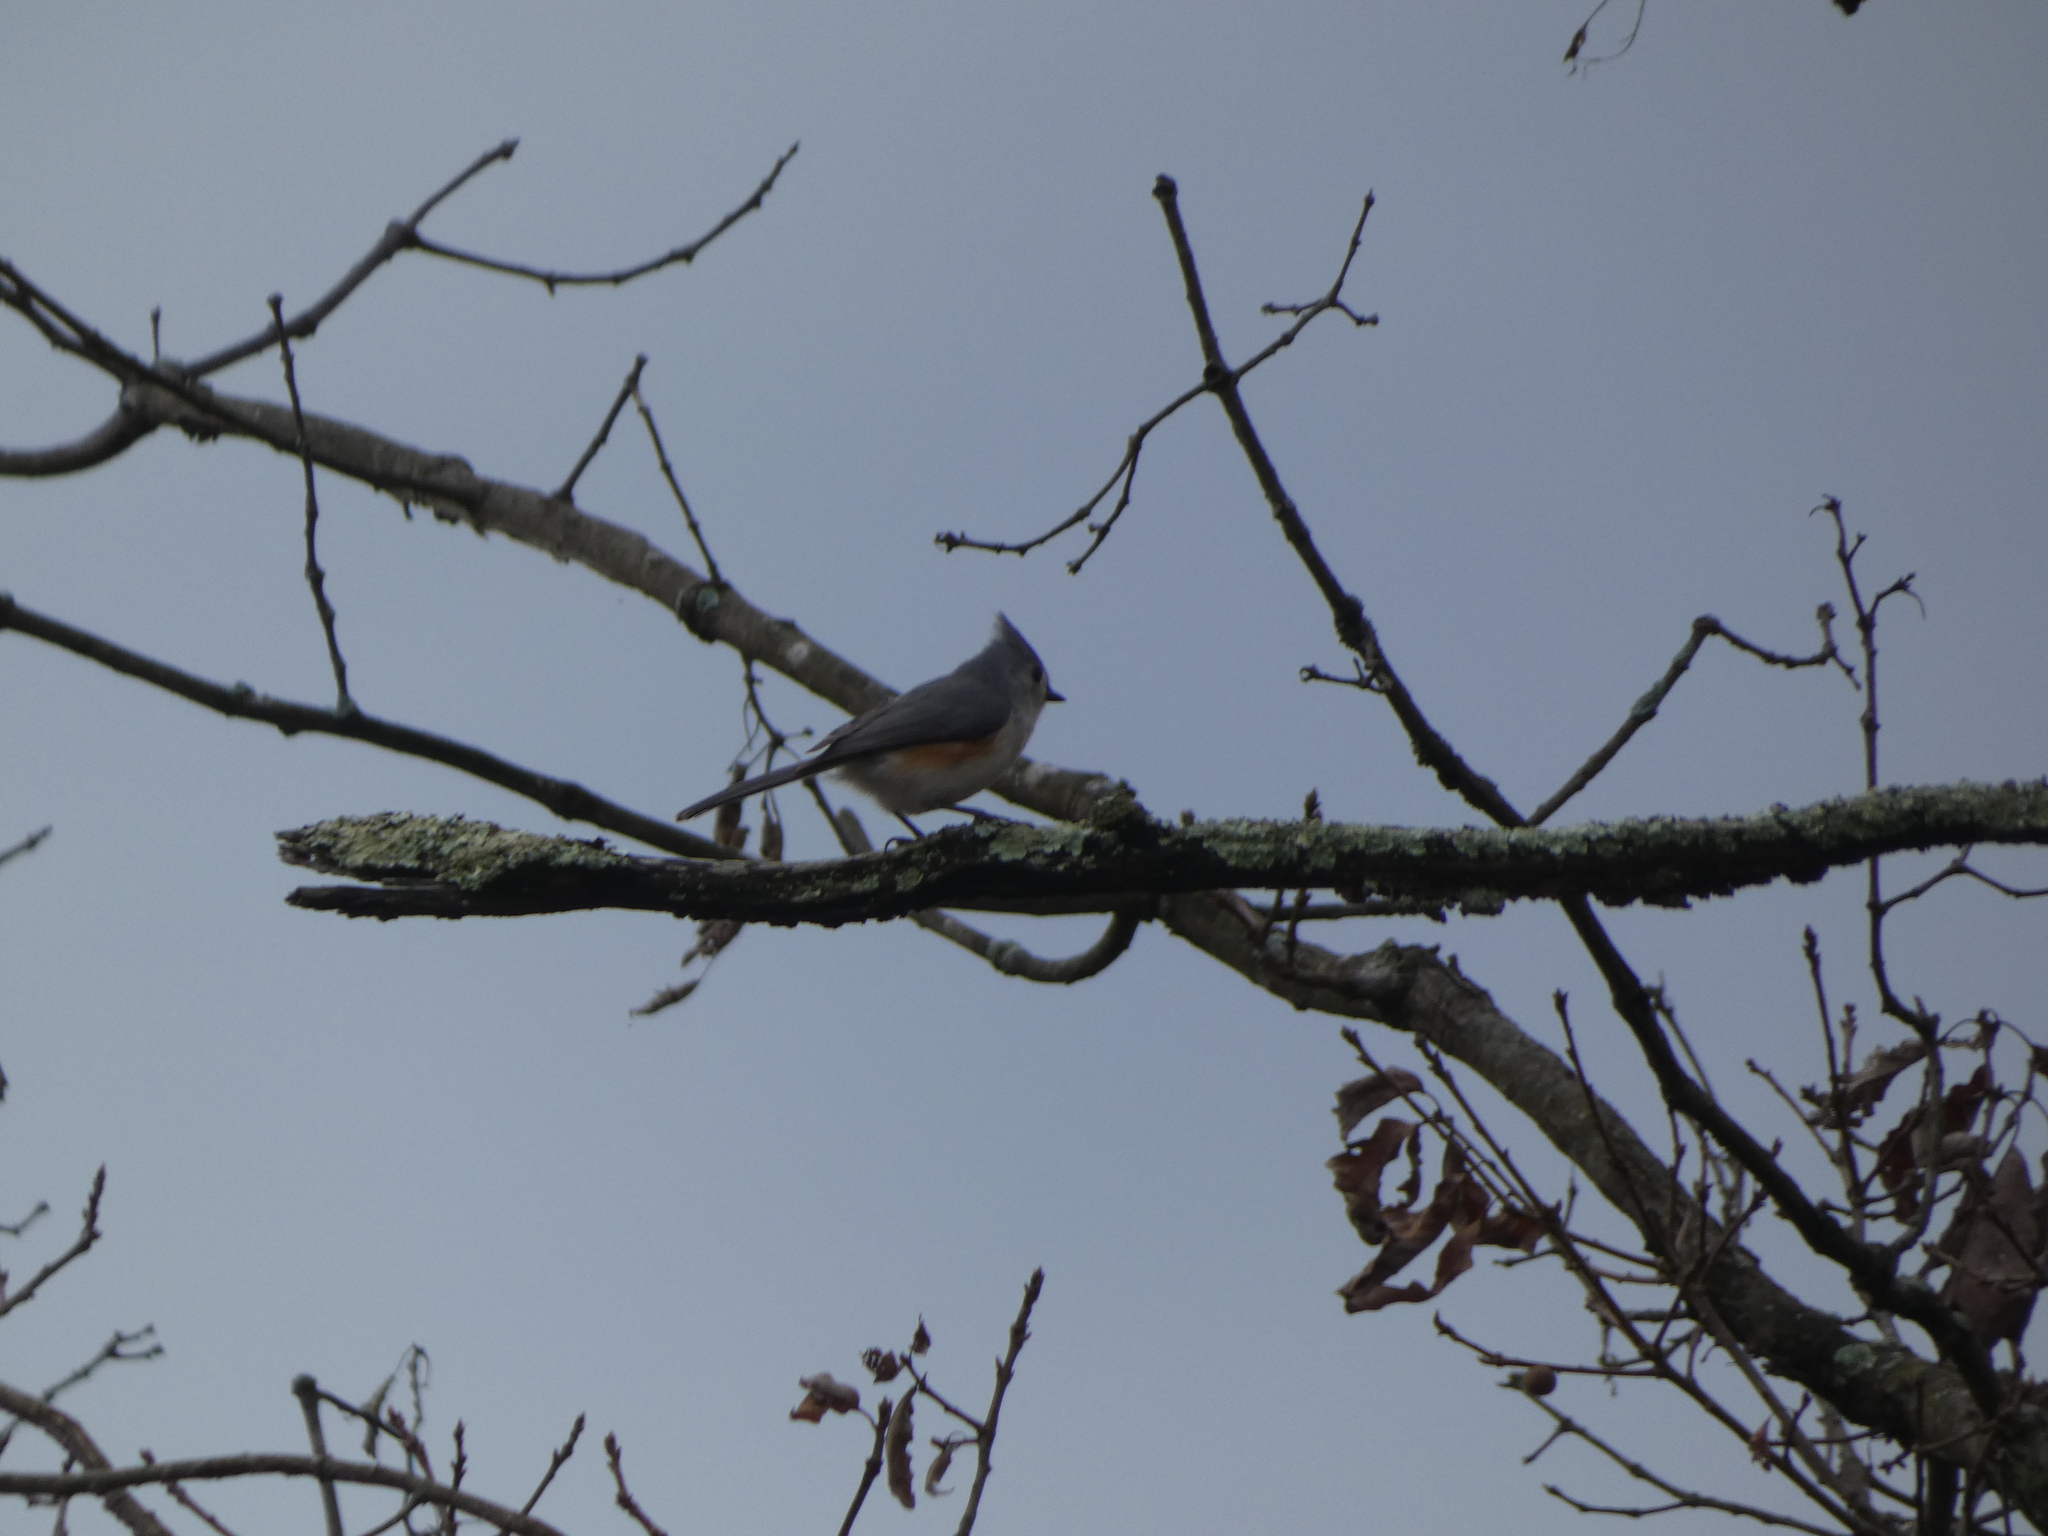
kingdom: Animalia
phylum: Chordata
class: Aves
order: Passeriformes
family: Paridae
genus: Baeolophus
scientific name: Baeolophus bicolor
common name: Tufted titmouse
